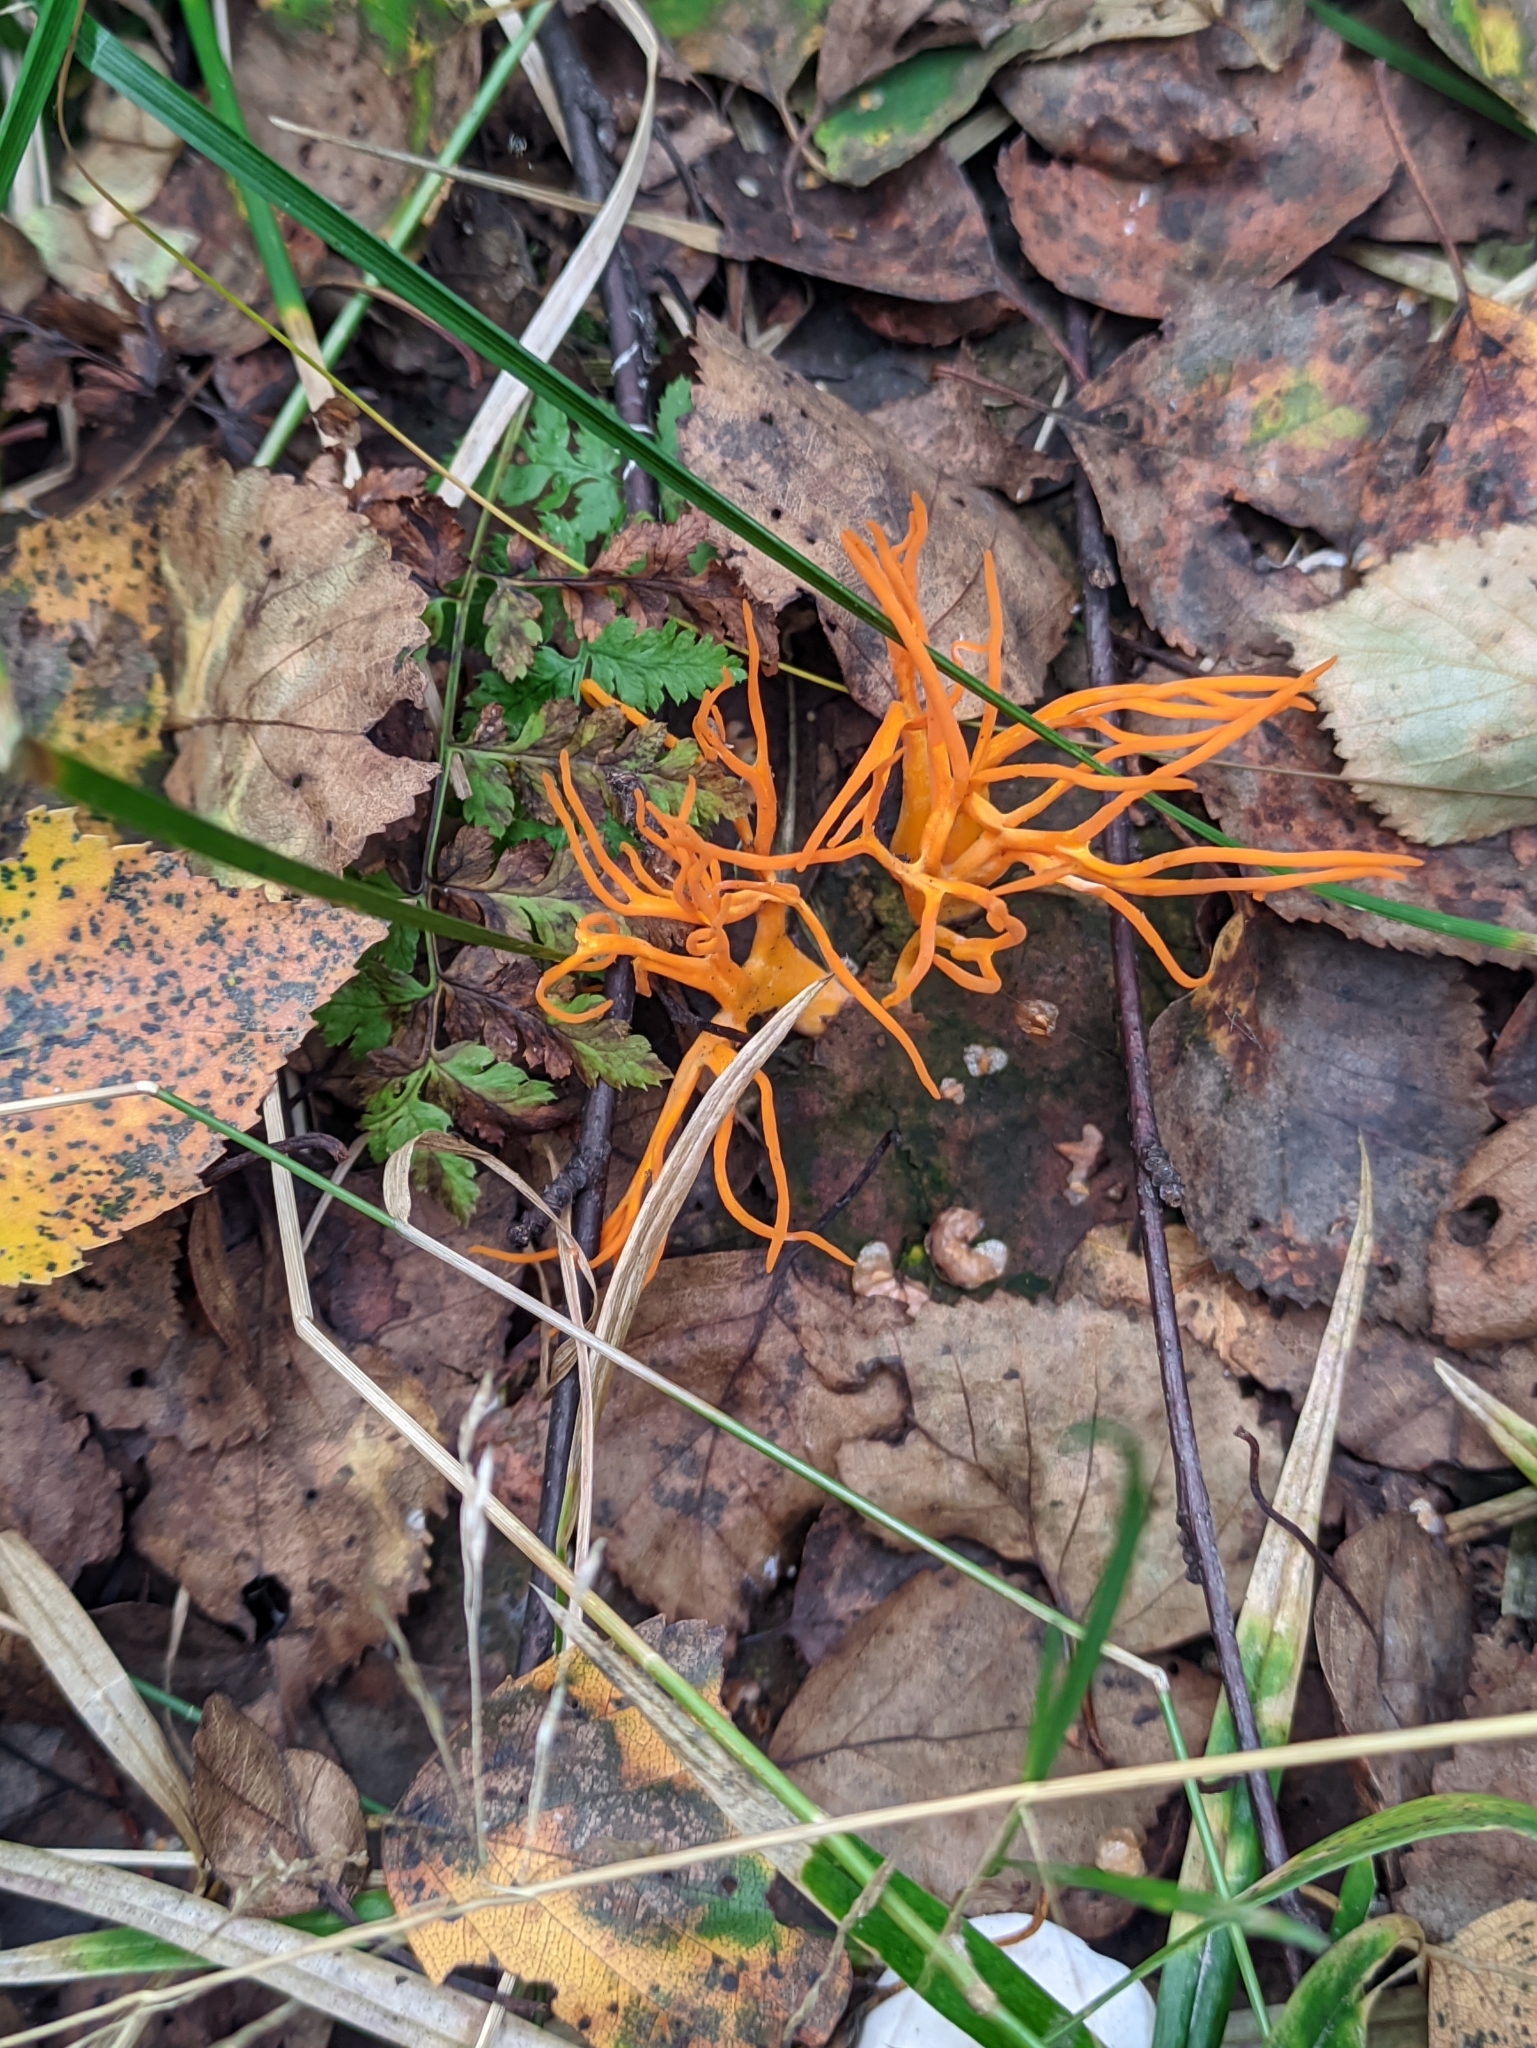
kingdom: Fungi
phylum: Basidiomycota
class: Dacrymycetes
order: Dacrymycetales
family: Dacrymycetaceae
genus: Calocera
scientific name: Calocera viscosa
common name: Yellow stagshorn
